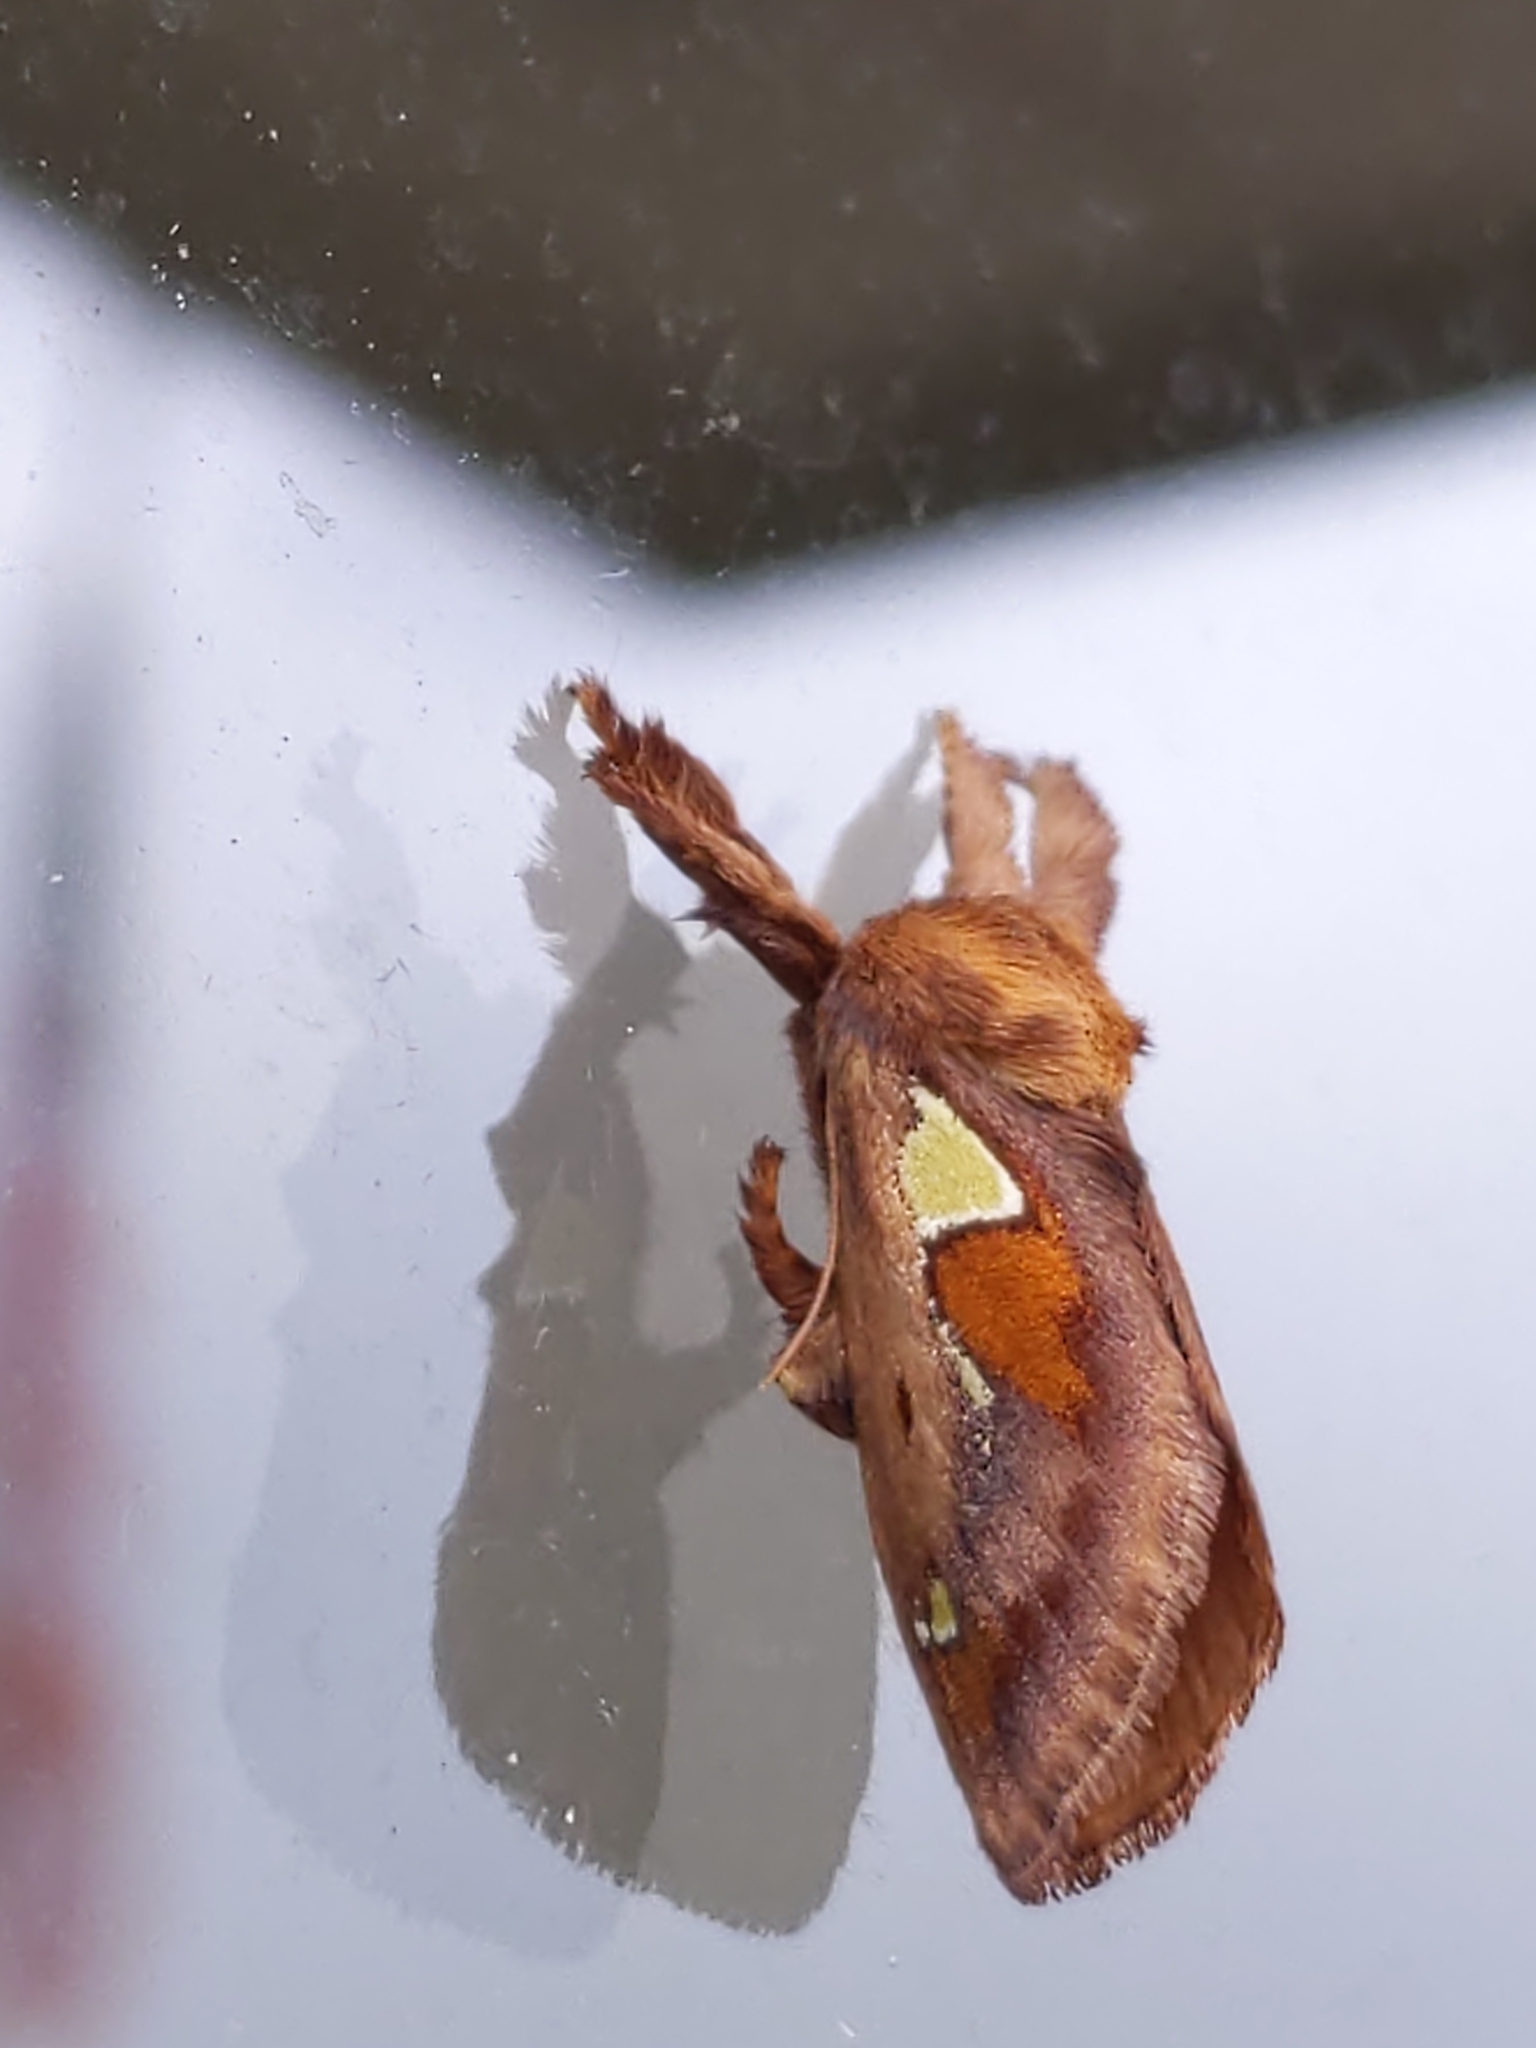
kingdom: Animalia
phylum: Arthropoda
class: Insecta
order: Lepidoptera
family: Limacodidae
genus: Euclea
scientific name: Euclea delphinii
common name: Spiny oak-slug moth
